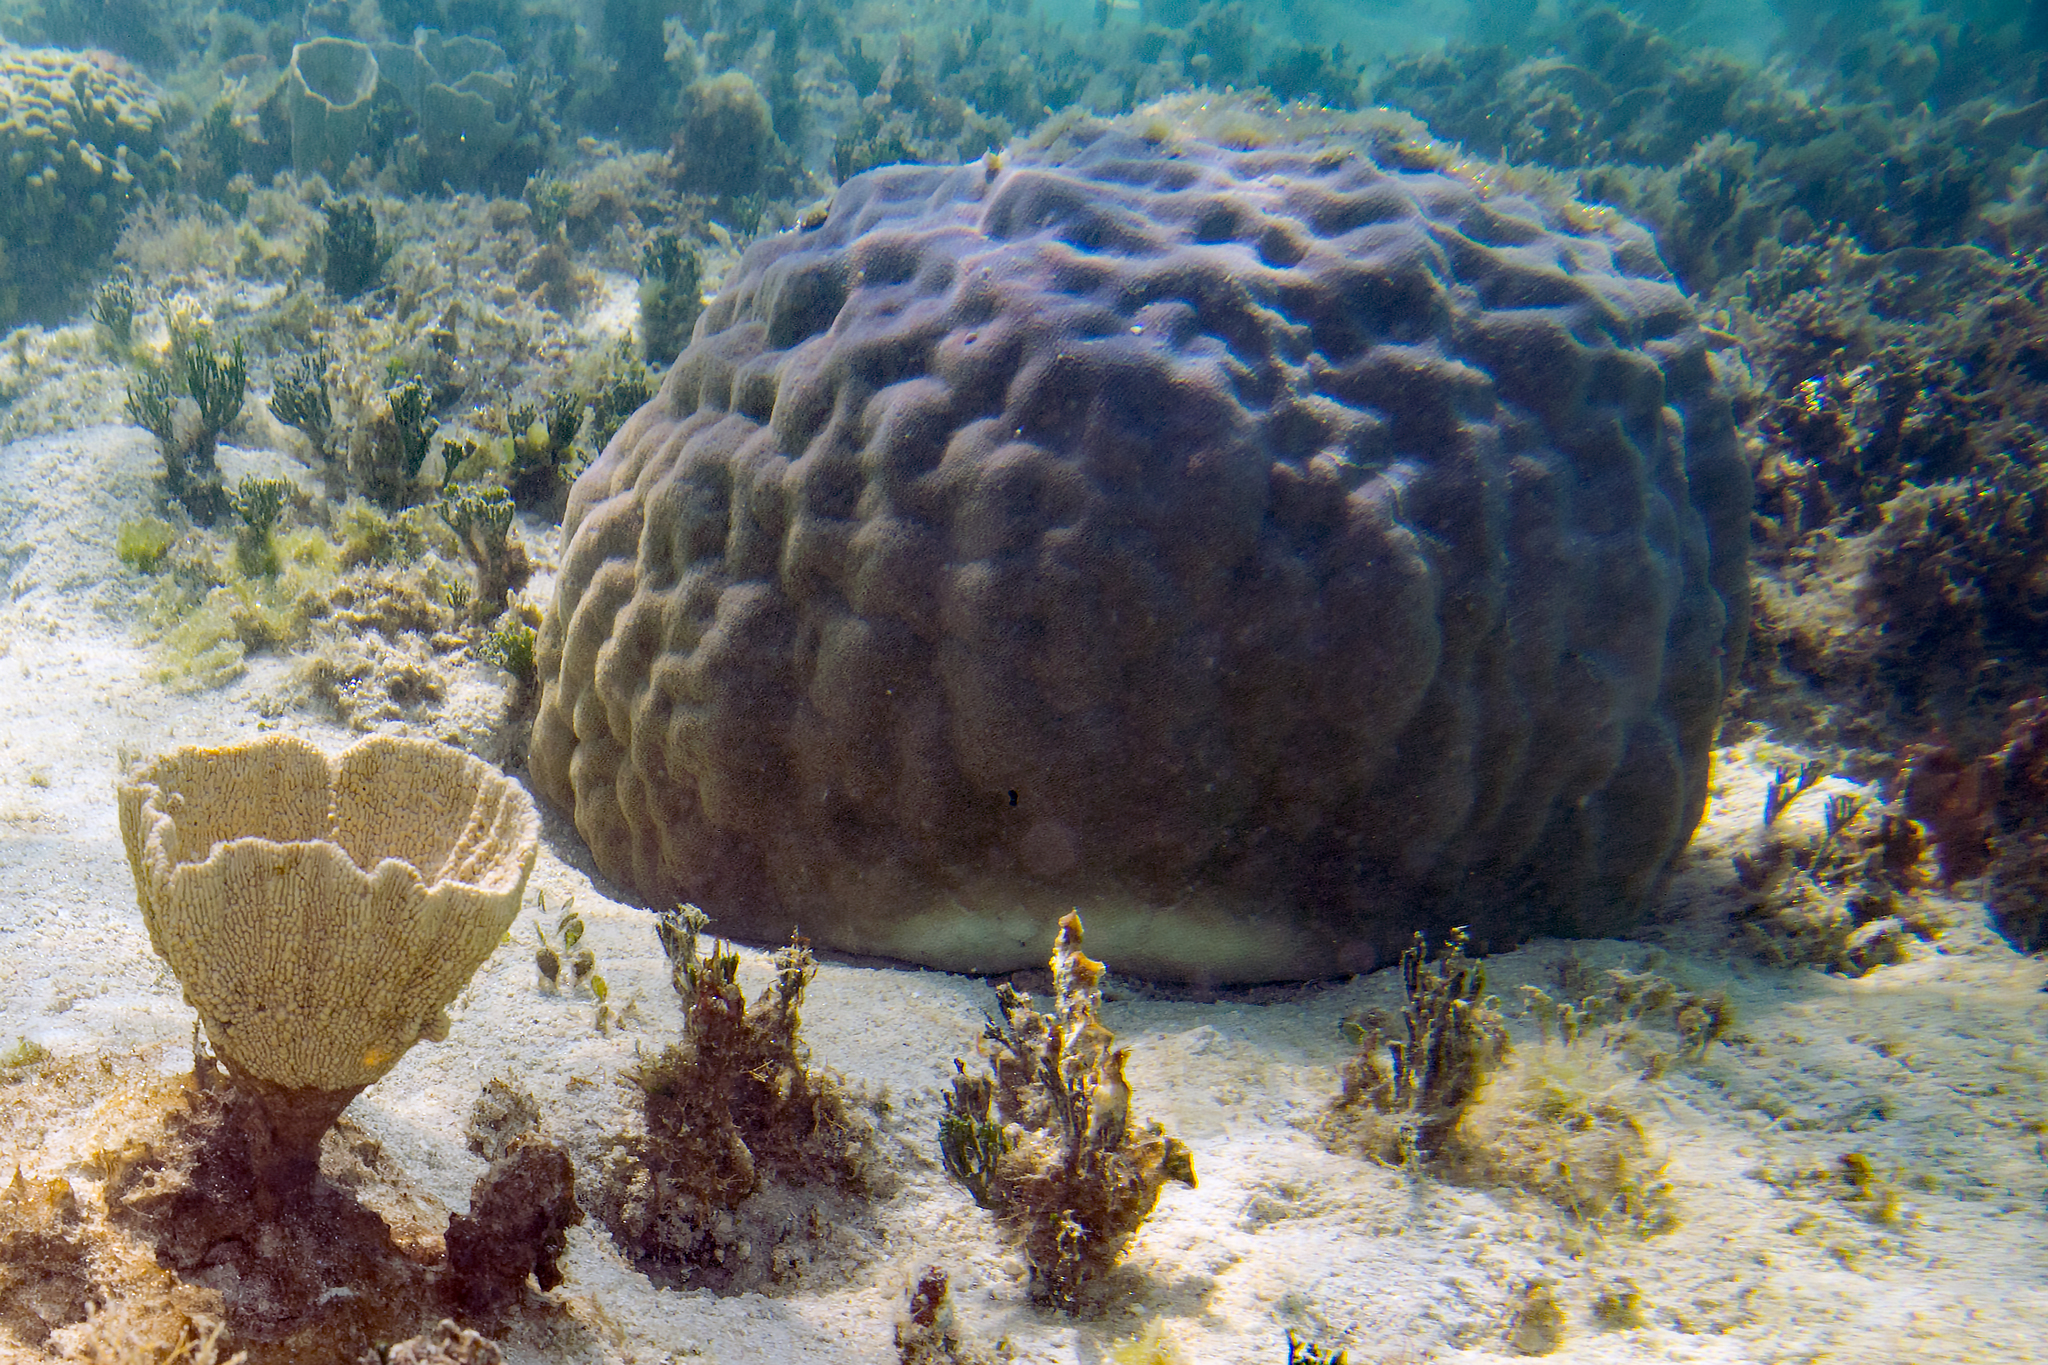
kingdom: Animalia
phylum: Porifera
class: Demospongiae
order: Dictyoceratida
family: Thorectidae
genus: Phyllospongia
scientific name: Phyllospongia foliascens
